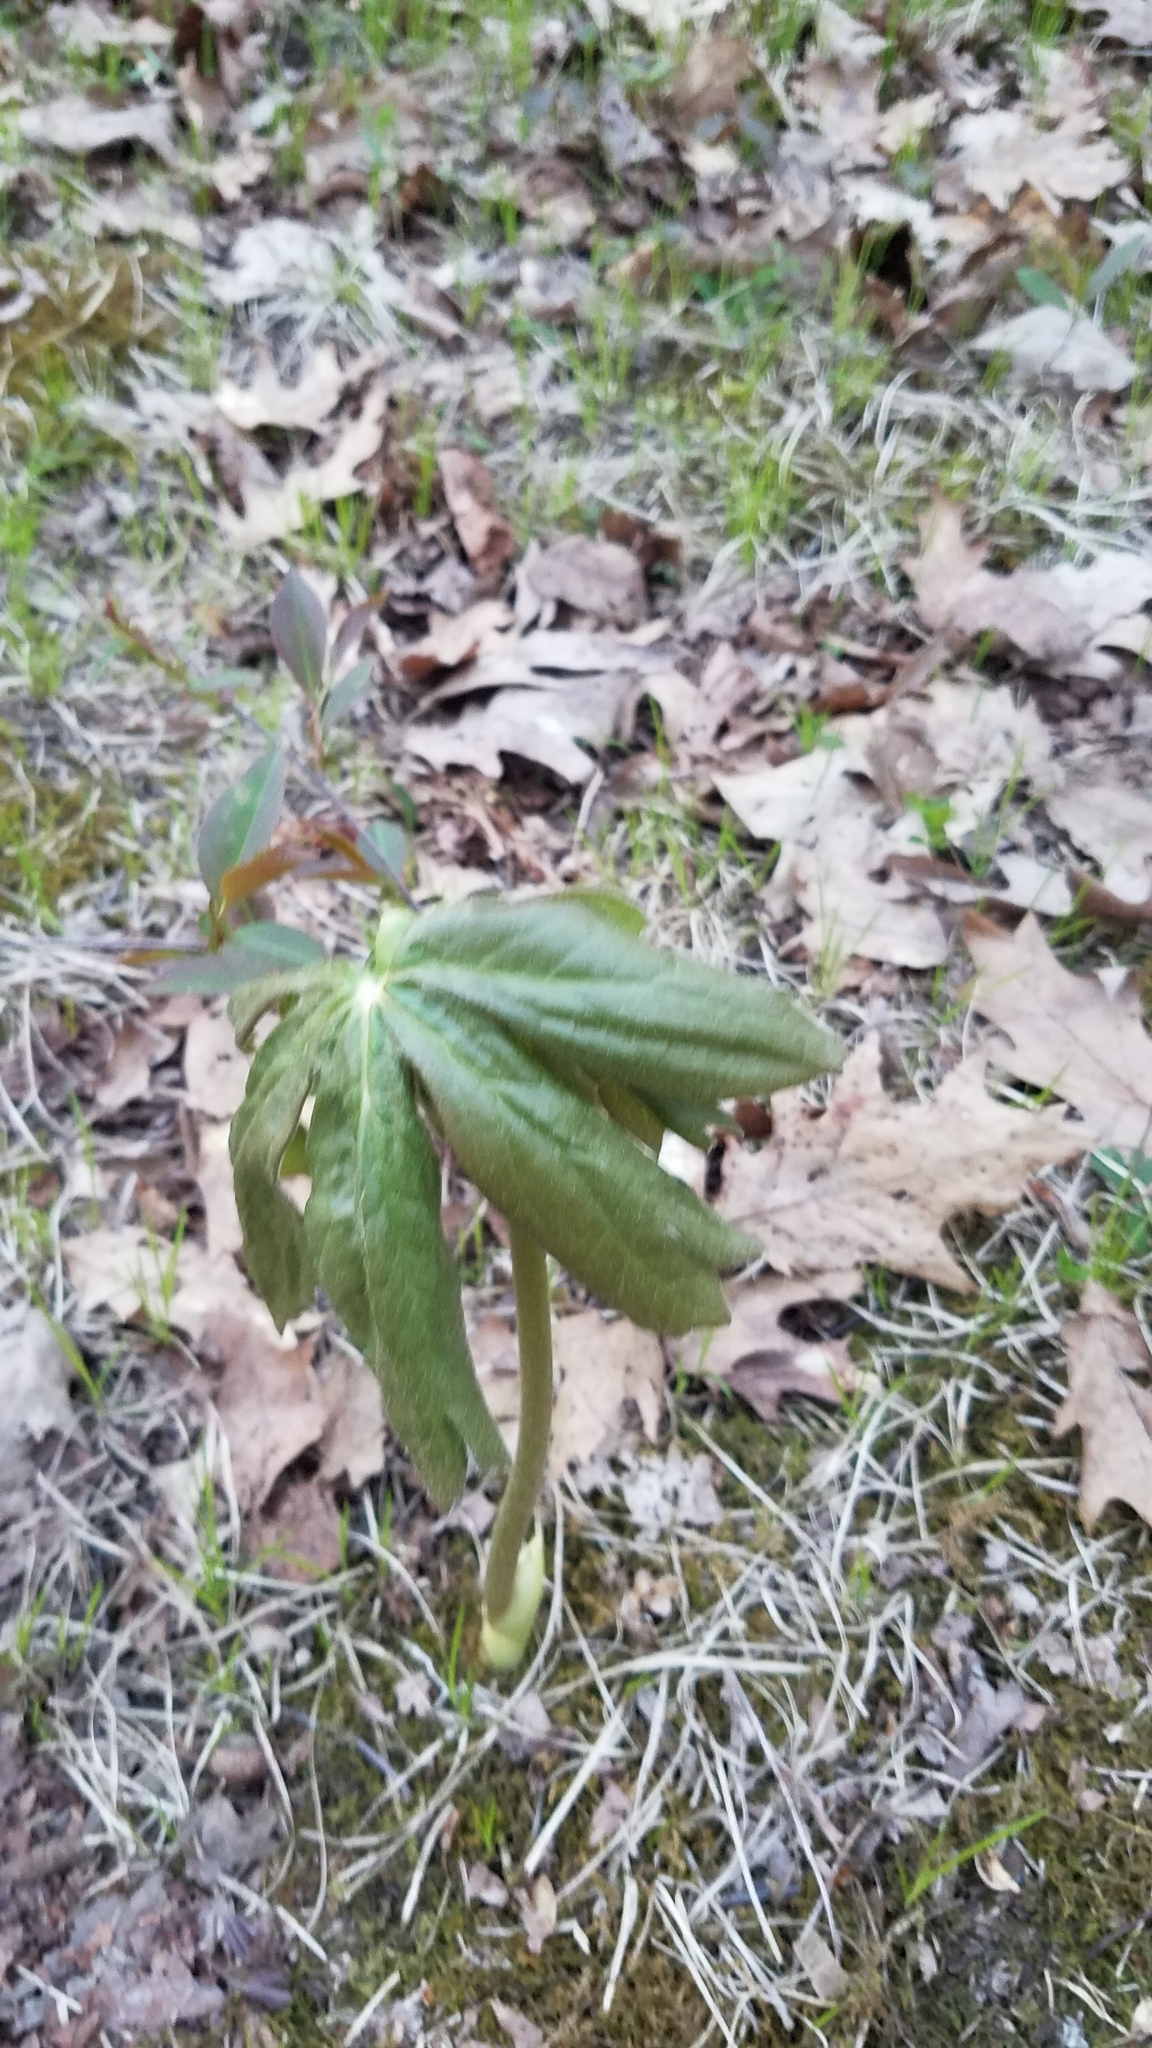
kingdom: Plantae
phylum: Tracheophyta
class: Magnoliopsida
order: Ranunculales
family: Berberidaceae
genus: Podophyllum
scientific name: Podophyllum peltatum
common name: Wild mandrake
